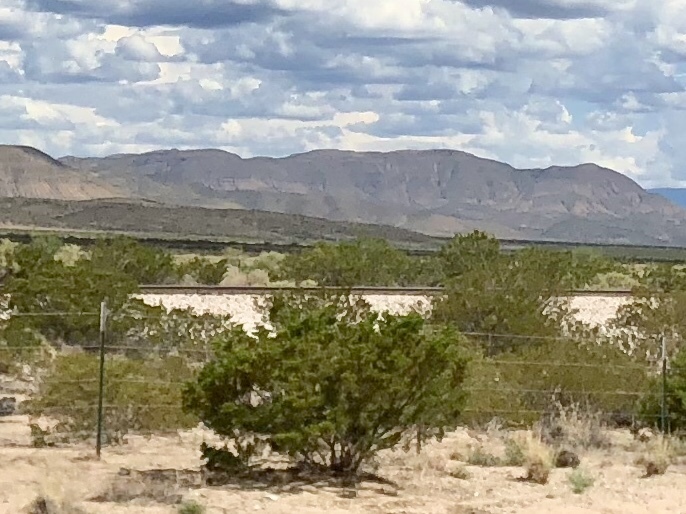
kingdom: Plantae
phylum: Tracheophyta
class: Magnoliopsida
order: Zygophyllales
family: Zygophyllaceae
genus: Larrea
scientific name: Larrea tridentata
